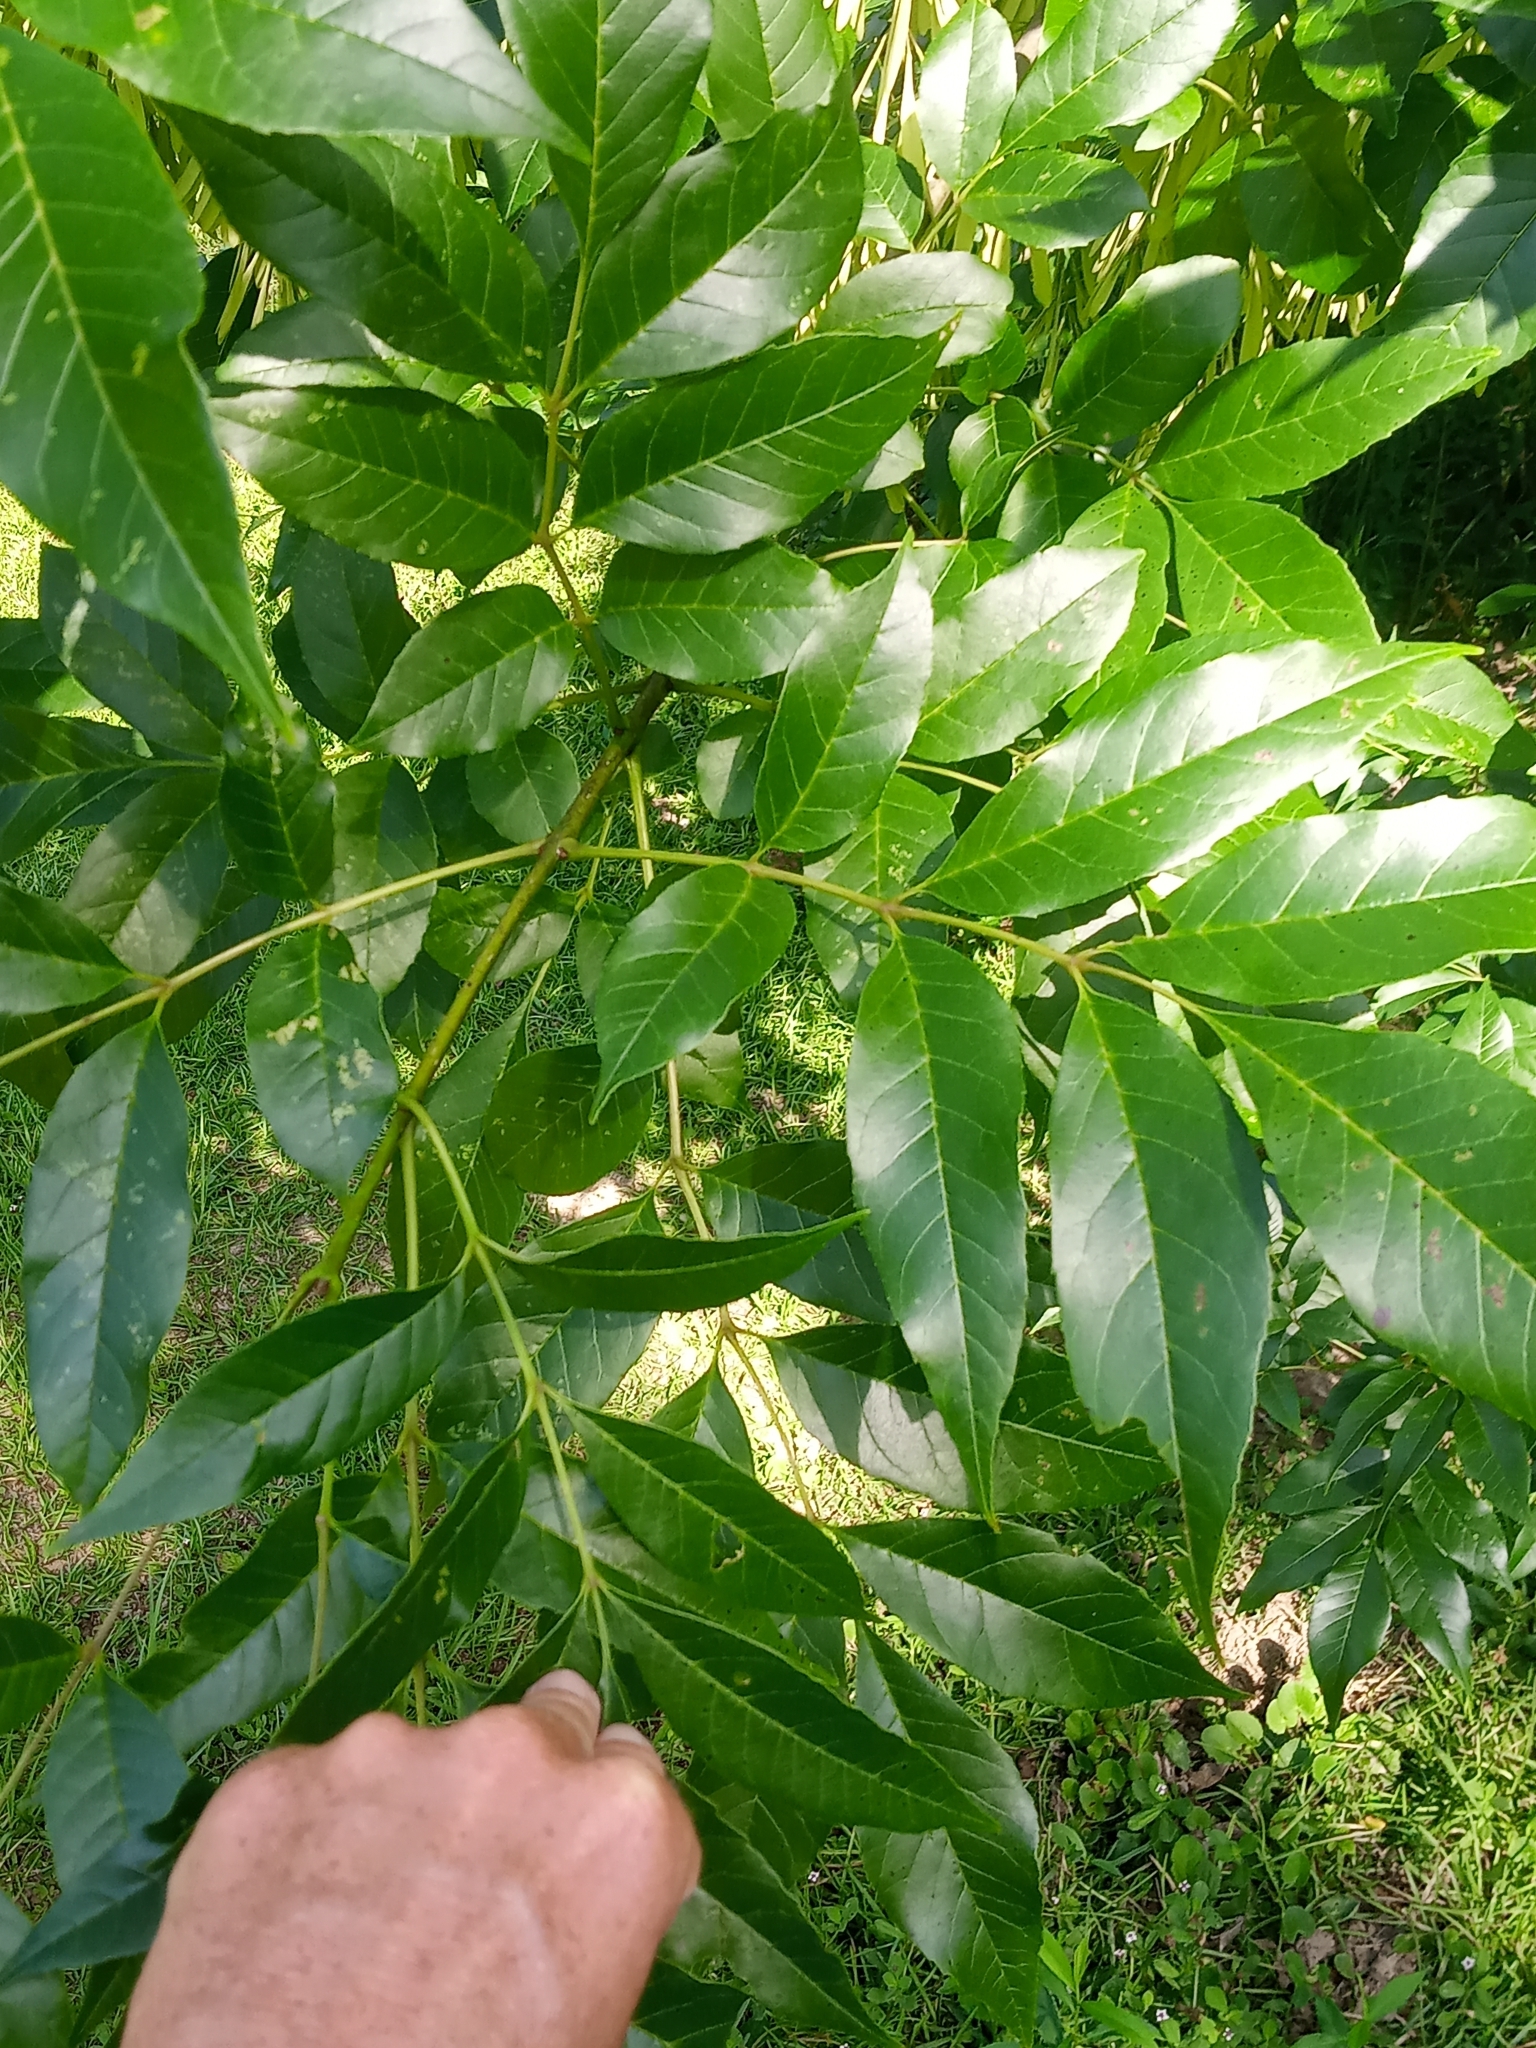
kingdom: Plantae
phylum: Tracheophyta
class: Magnoliopsida
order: Lamiales
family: Oleaceae
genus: Fraxinus
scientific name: Fraxinus pennsylvanica
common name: Green ash
